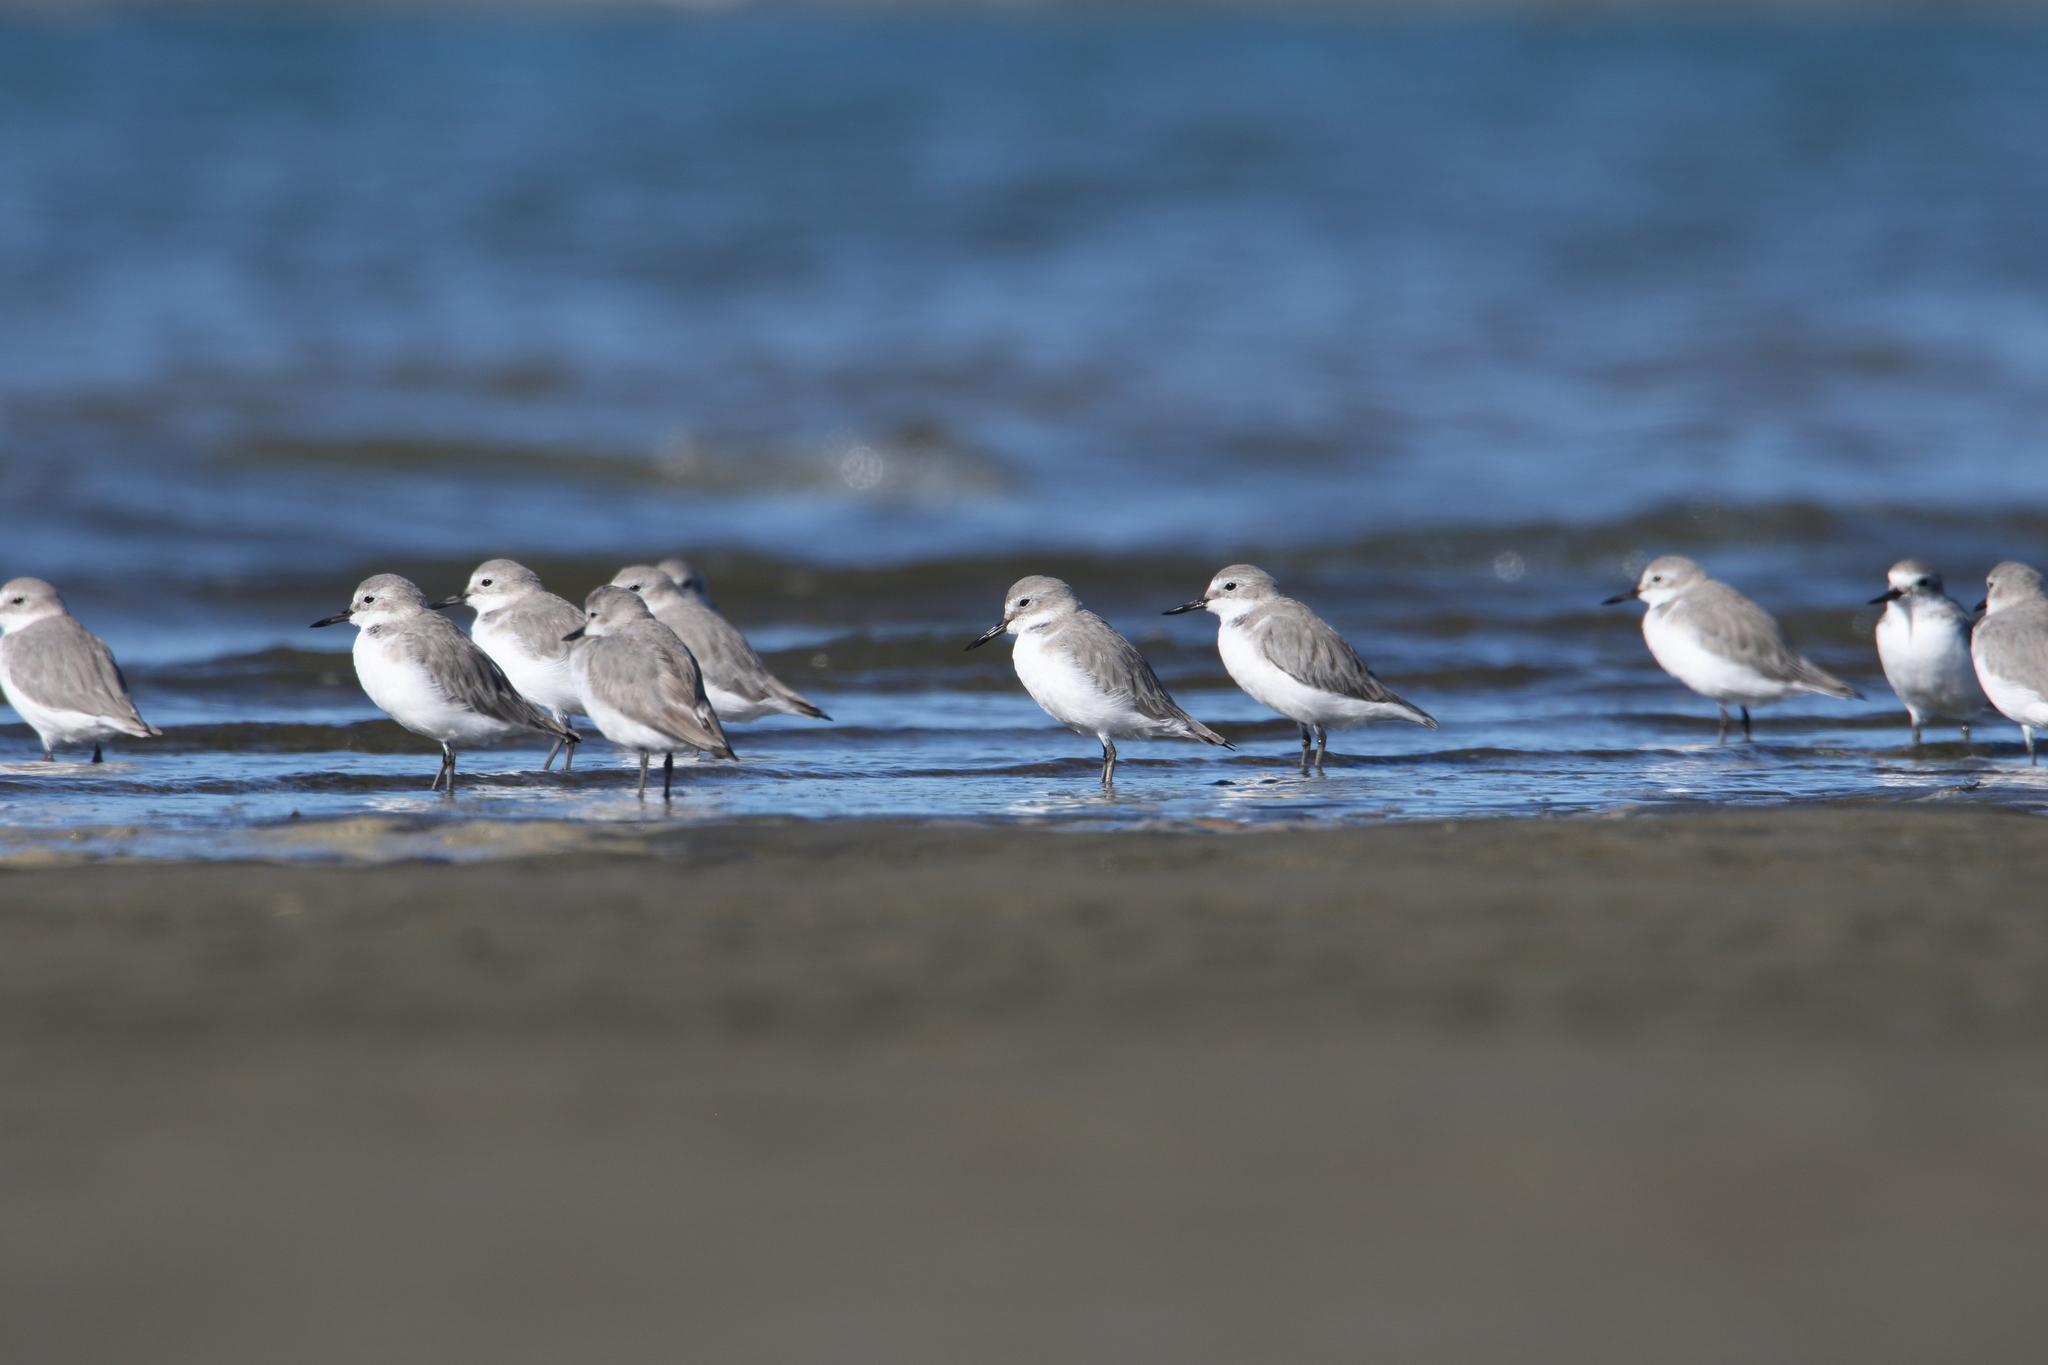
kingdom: Animalia
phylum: Chordata
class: Aves
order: Charadriiformes
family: Charadriidae
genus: Anarhynchus
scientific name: Anarhynchus frontalis
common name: Wrybill
